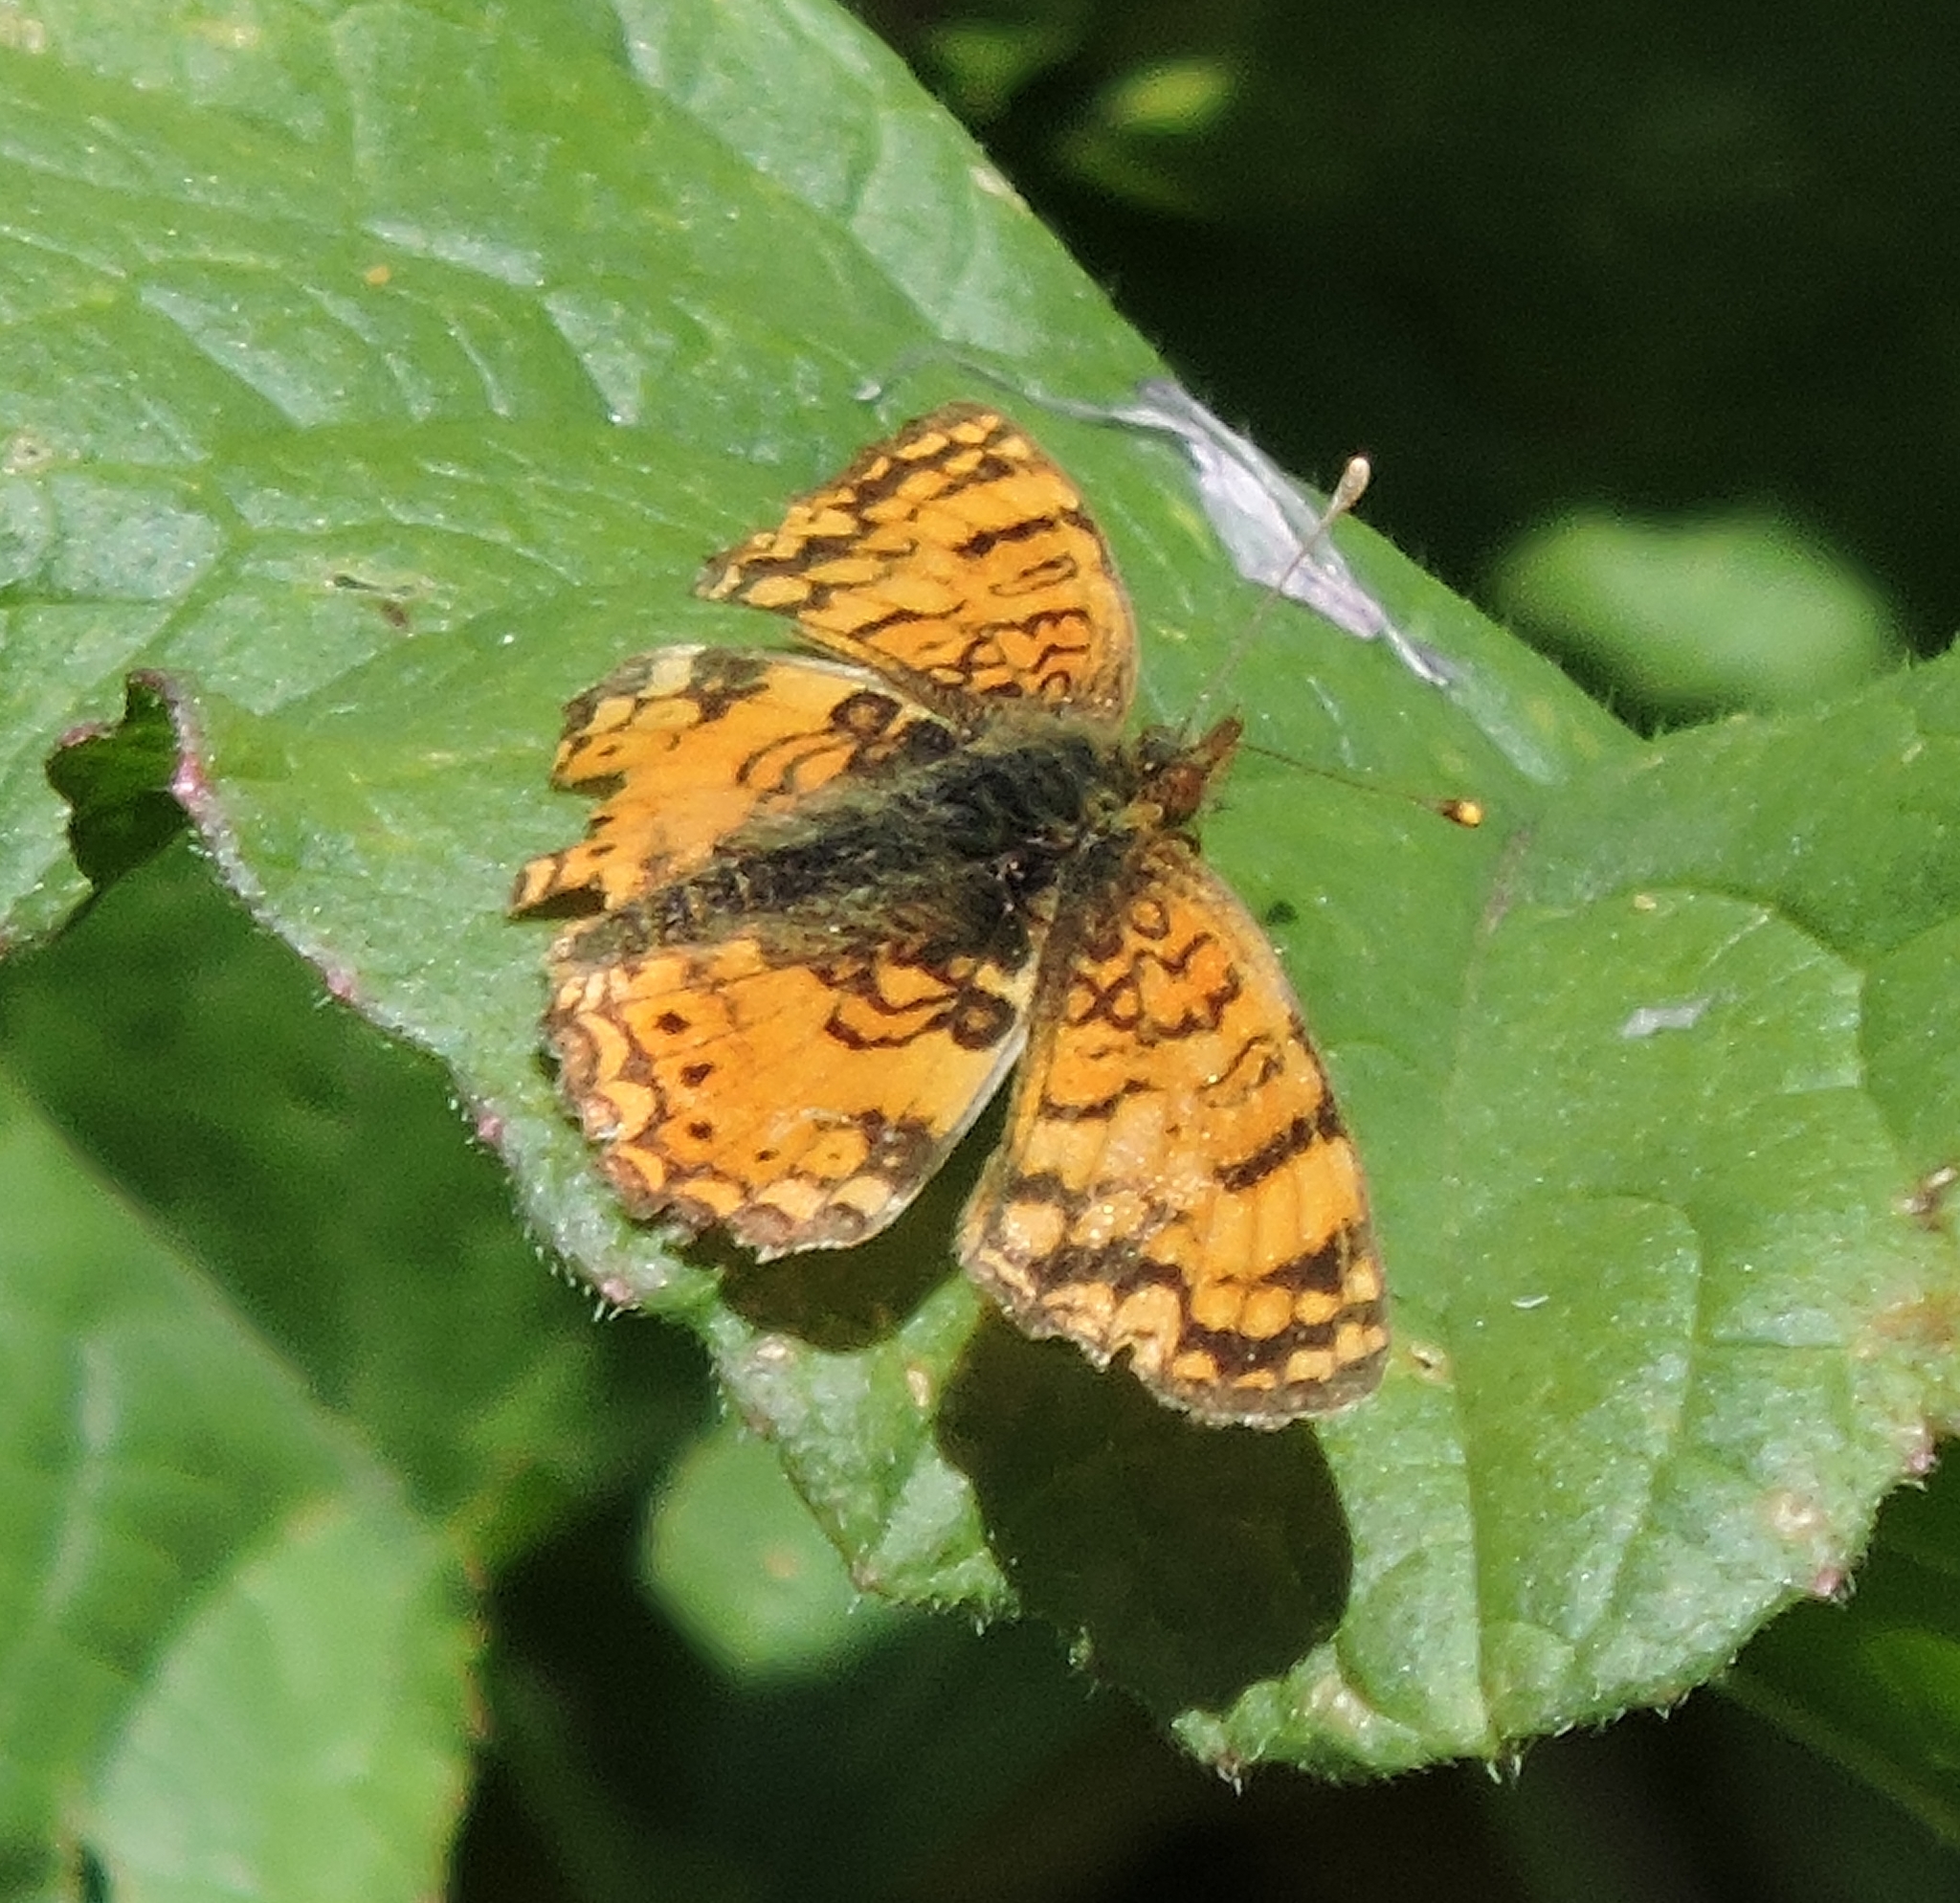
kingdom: Animalia
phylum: Arthropoda
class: Insecta
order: Lepidoptera
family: Nymphalidae
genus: Eresia
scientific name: Eresia aveyrona
